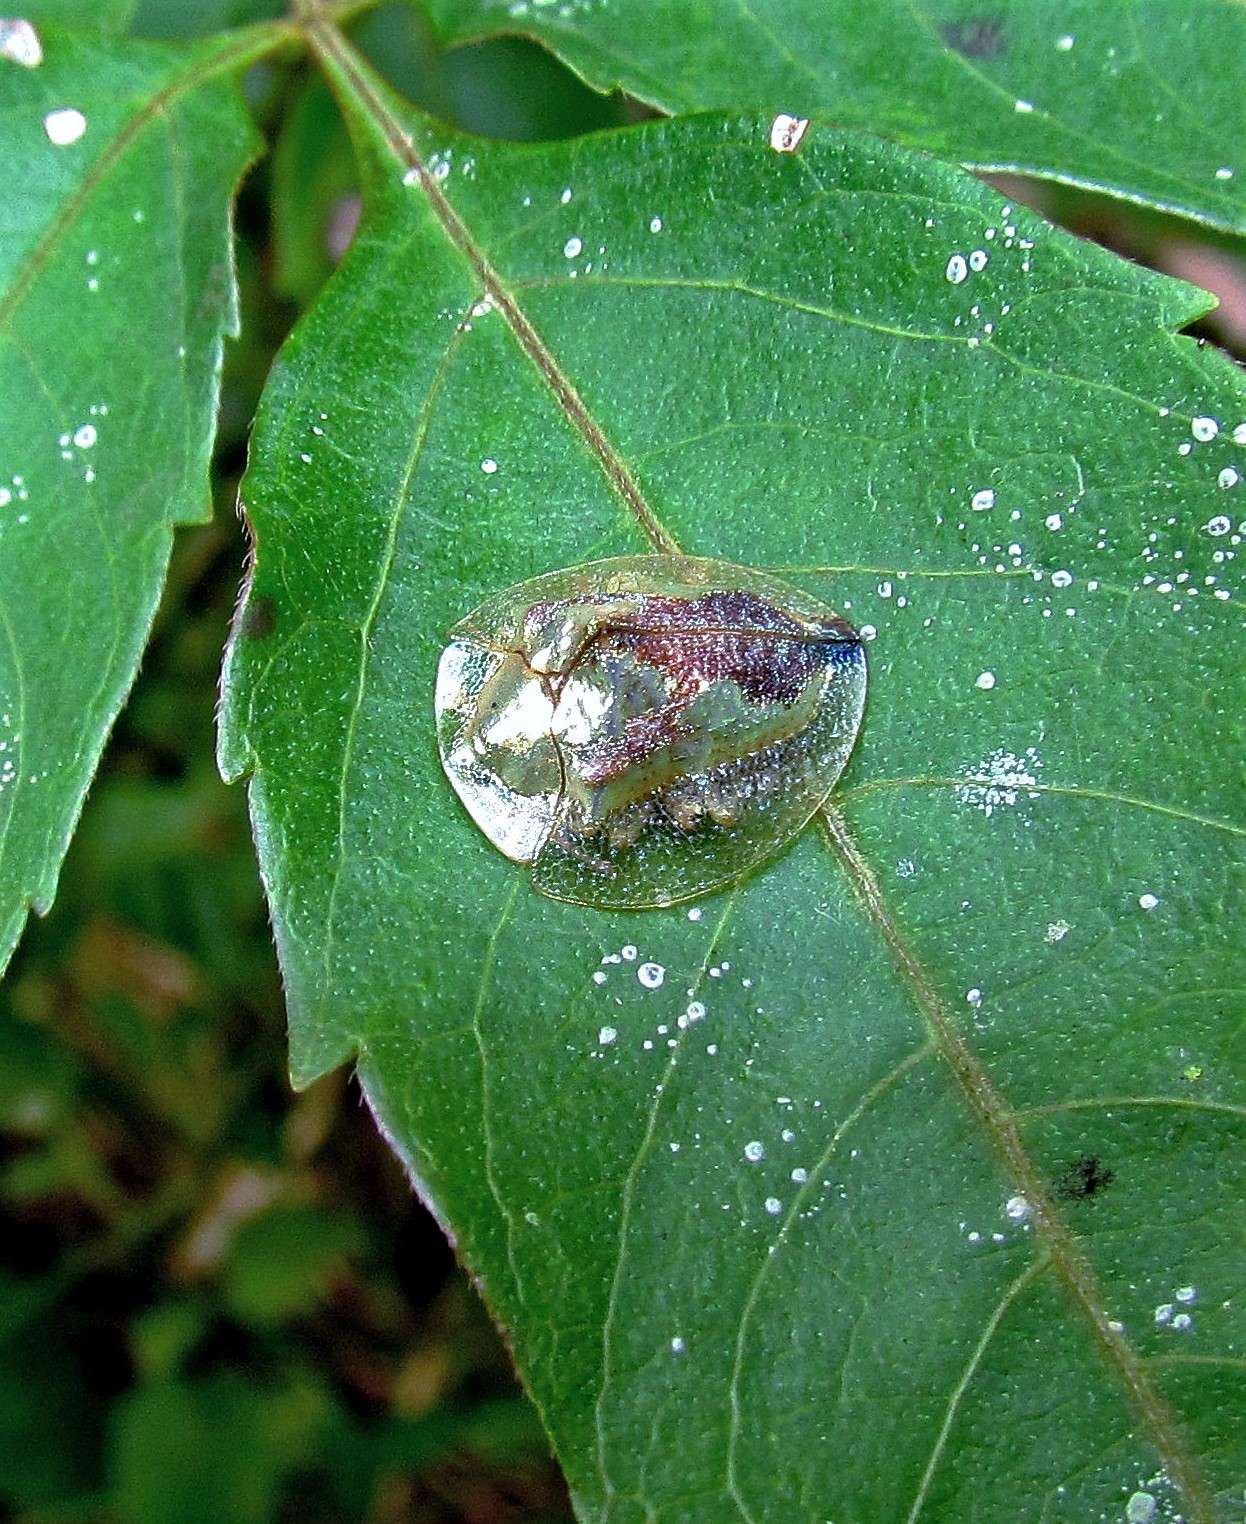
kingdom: Animalia
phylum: Arthropoda
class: Insecta
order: Coleoptera
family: Chrysomelidae
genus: Coptocycla
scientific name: Coptocycla contemta
